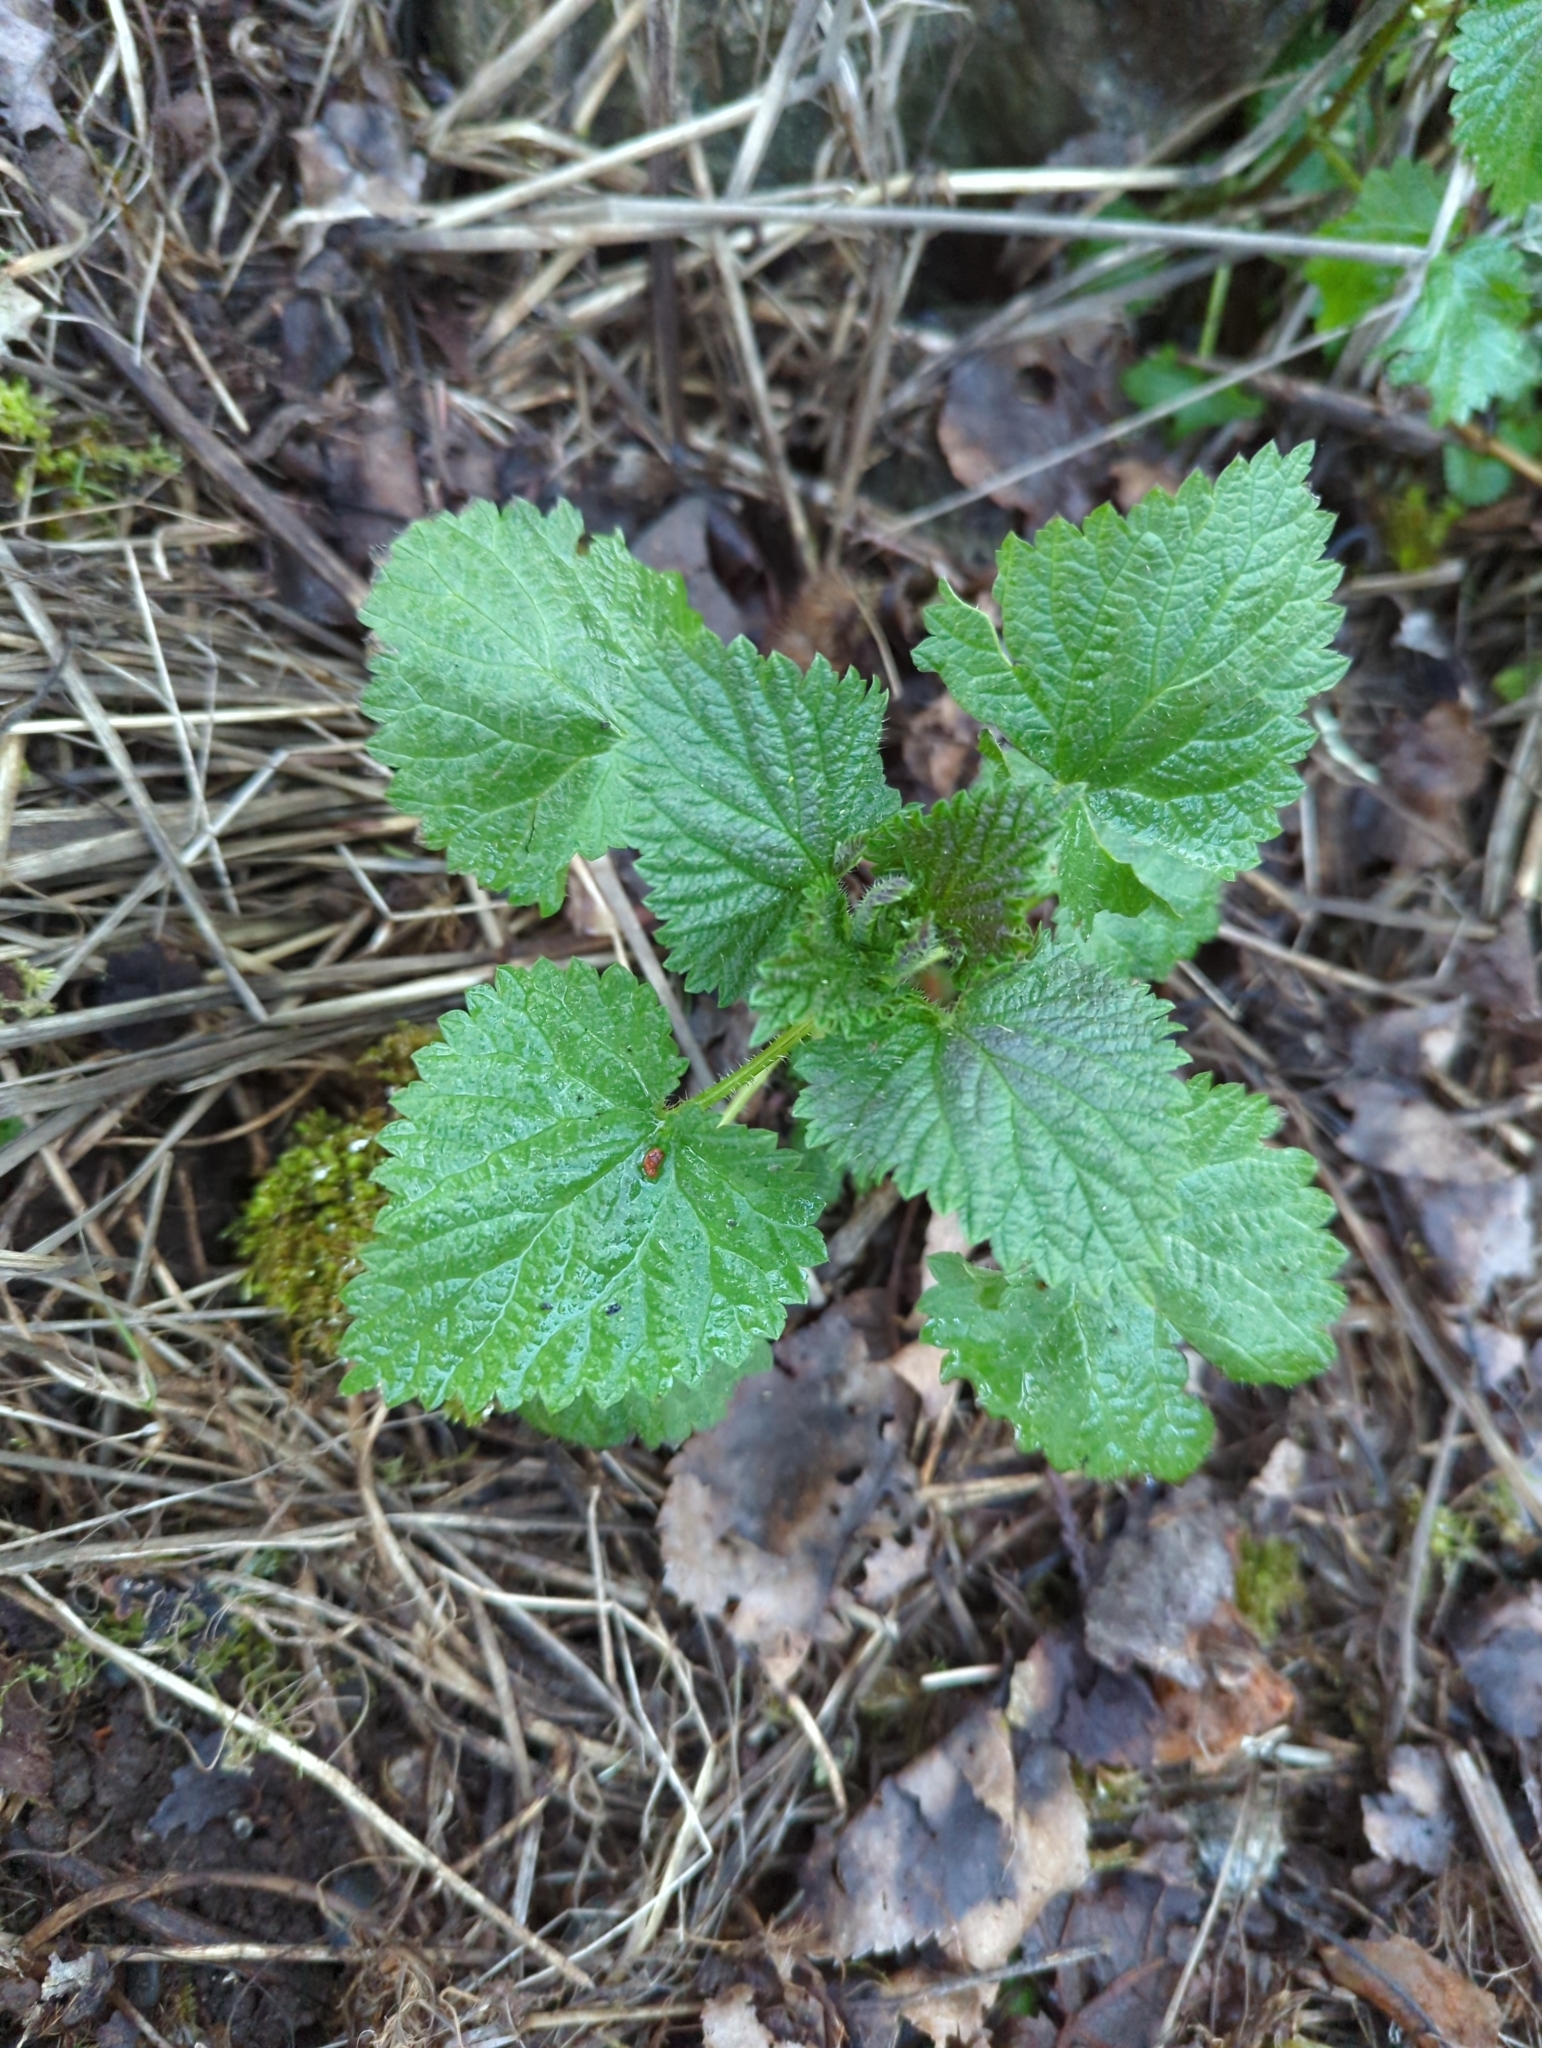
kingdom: Plantae
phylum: Tracheophyta
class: Magnoliopsida
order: Rosales
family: Urticaceae
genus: Urtica
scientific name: Urtica dioica
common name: Common nettle
